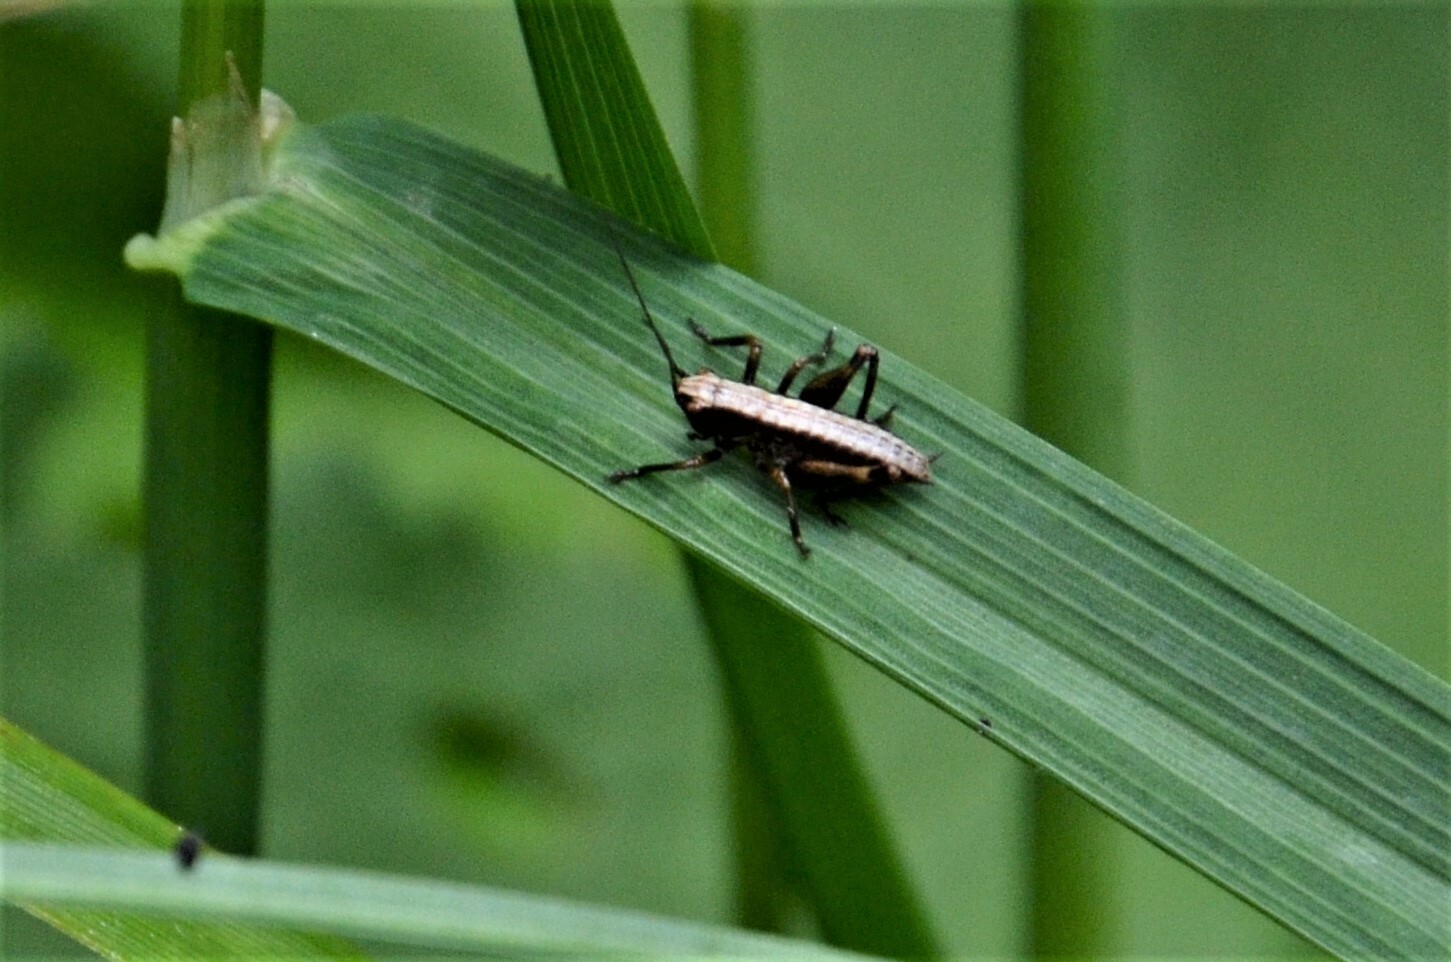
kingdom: Animalia
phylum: Arthropoda
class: Insecta
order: Orthoptera
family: Tettigoniidae
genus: Pholidoptera
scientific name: Pholidoptera griseoaptera
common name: Dark bush-cricket
